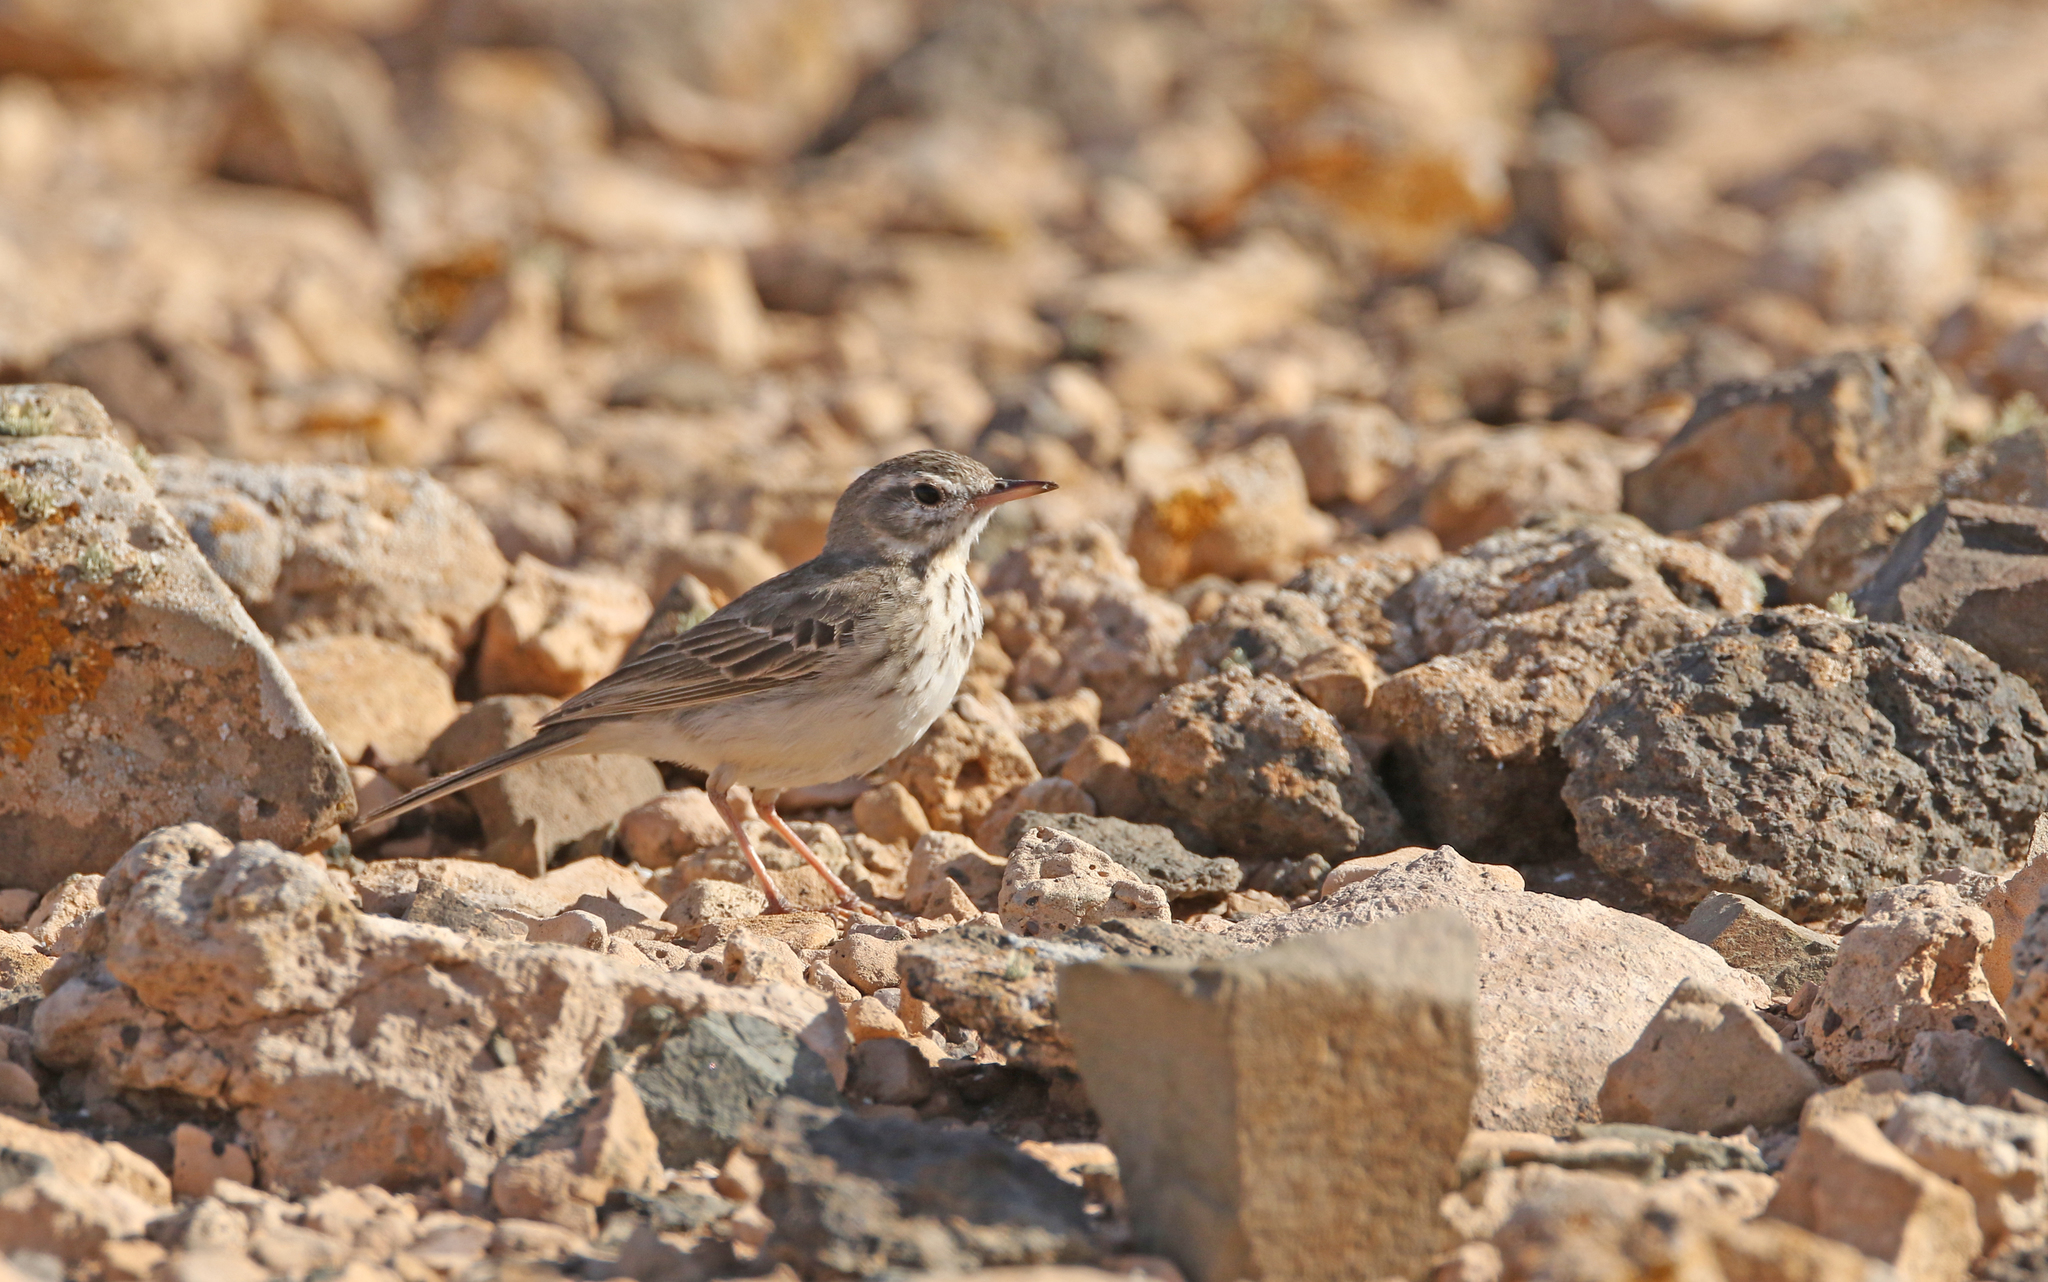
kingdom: Animalia
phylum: Chordata
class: Aves
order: Passeriformes
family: Motacillidae
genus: Anthus
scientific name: Anthus berthelotii
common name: Berthelot's pipit
